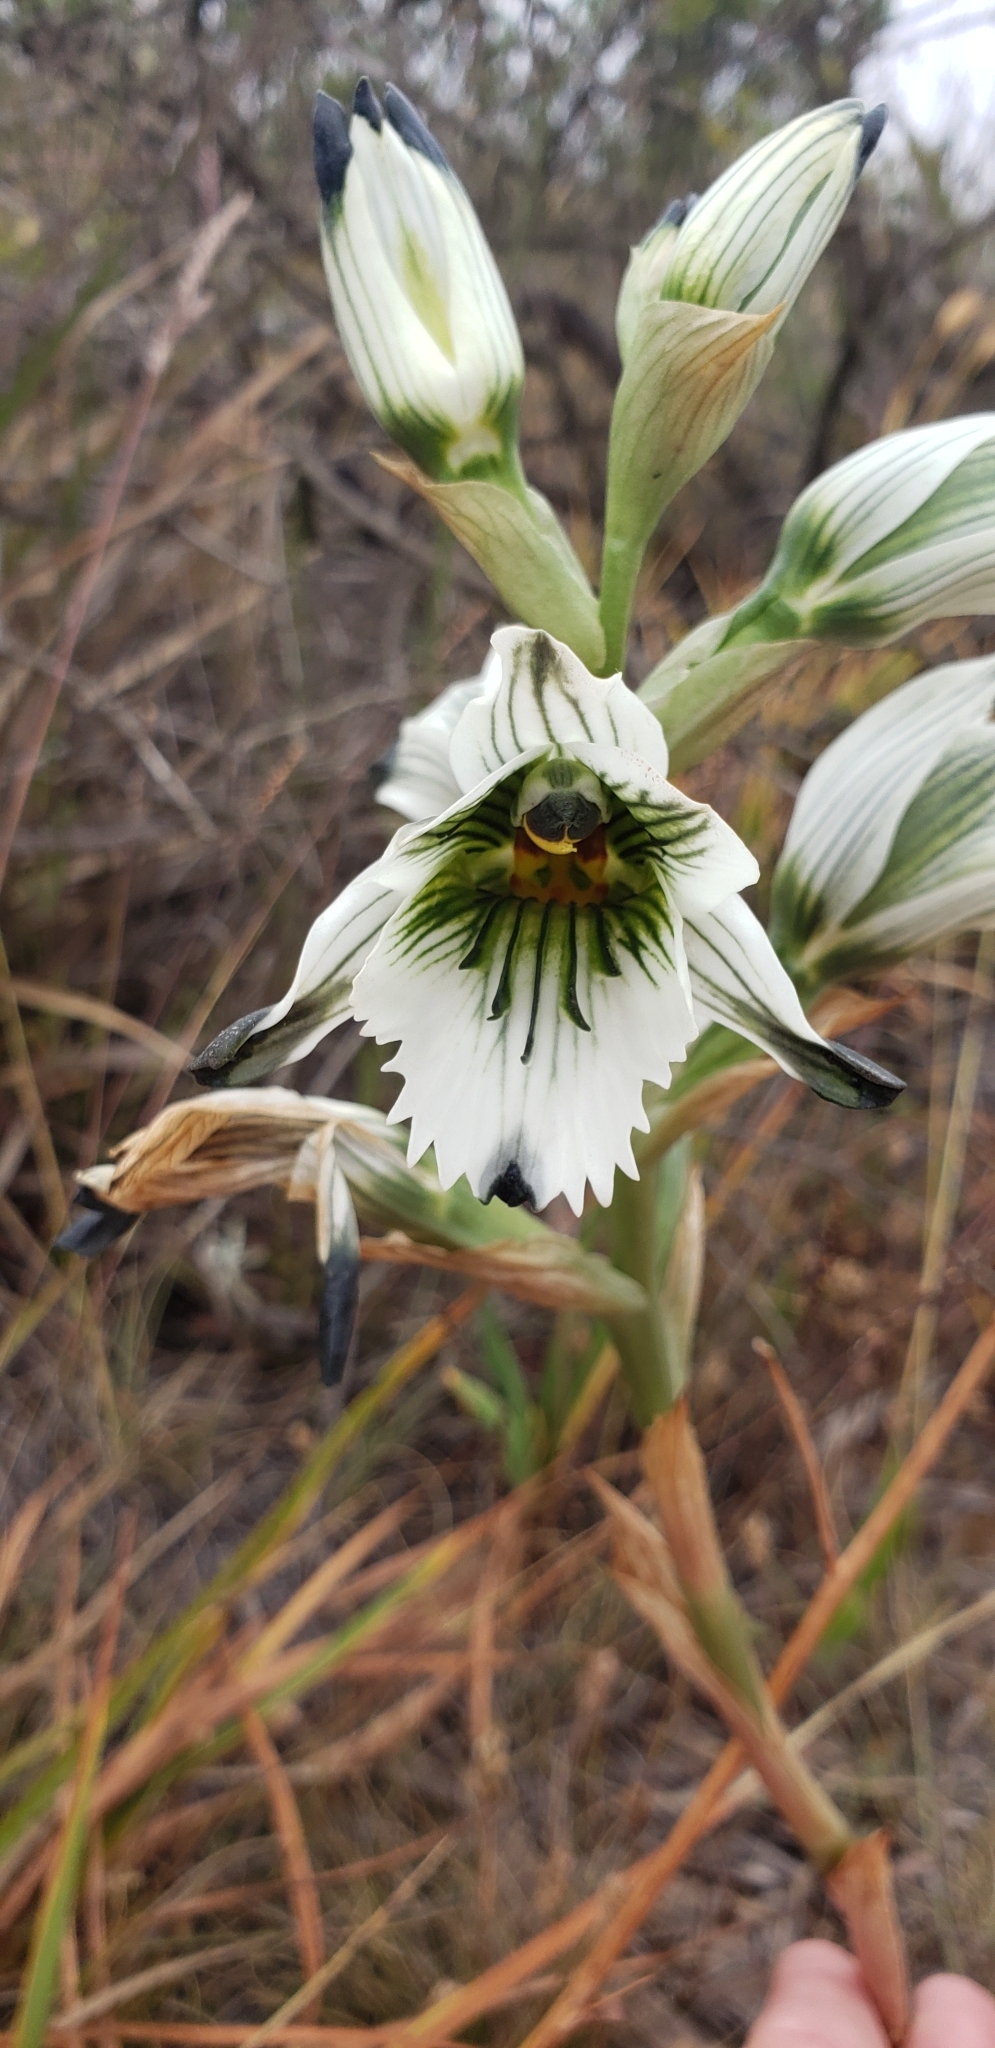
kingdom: Plantae
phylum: Tracheophyta
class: Liliopsida
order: Asparagales
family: Orchidaceae
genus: Chloraea
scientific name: Chloraea bletioides
